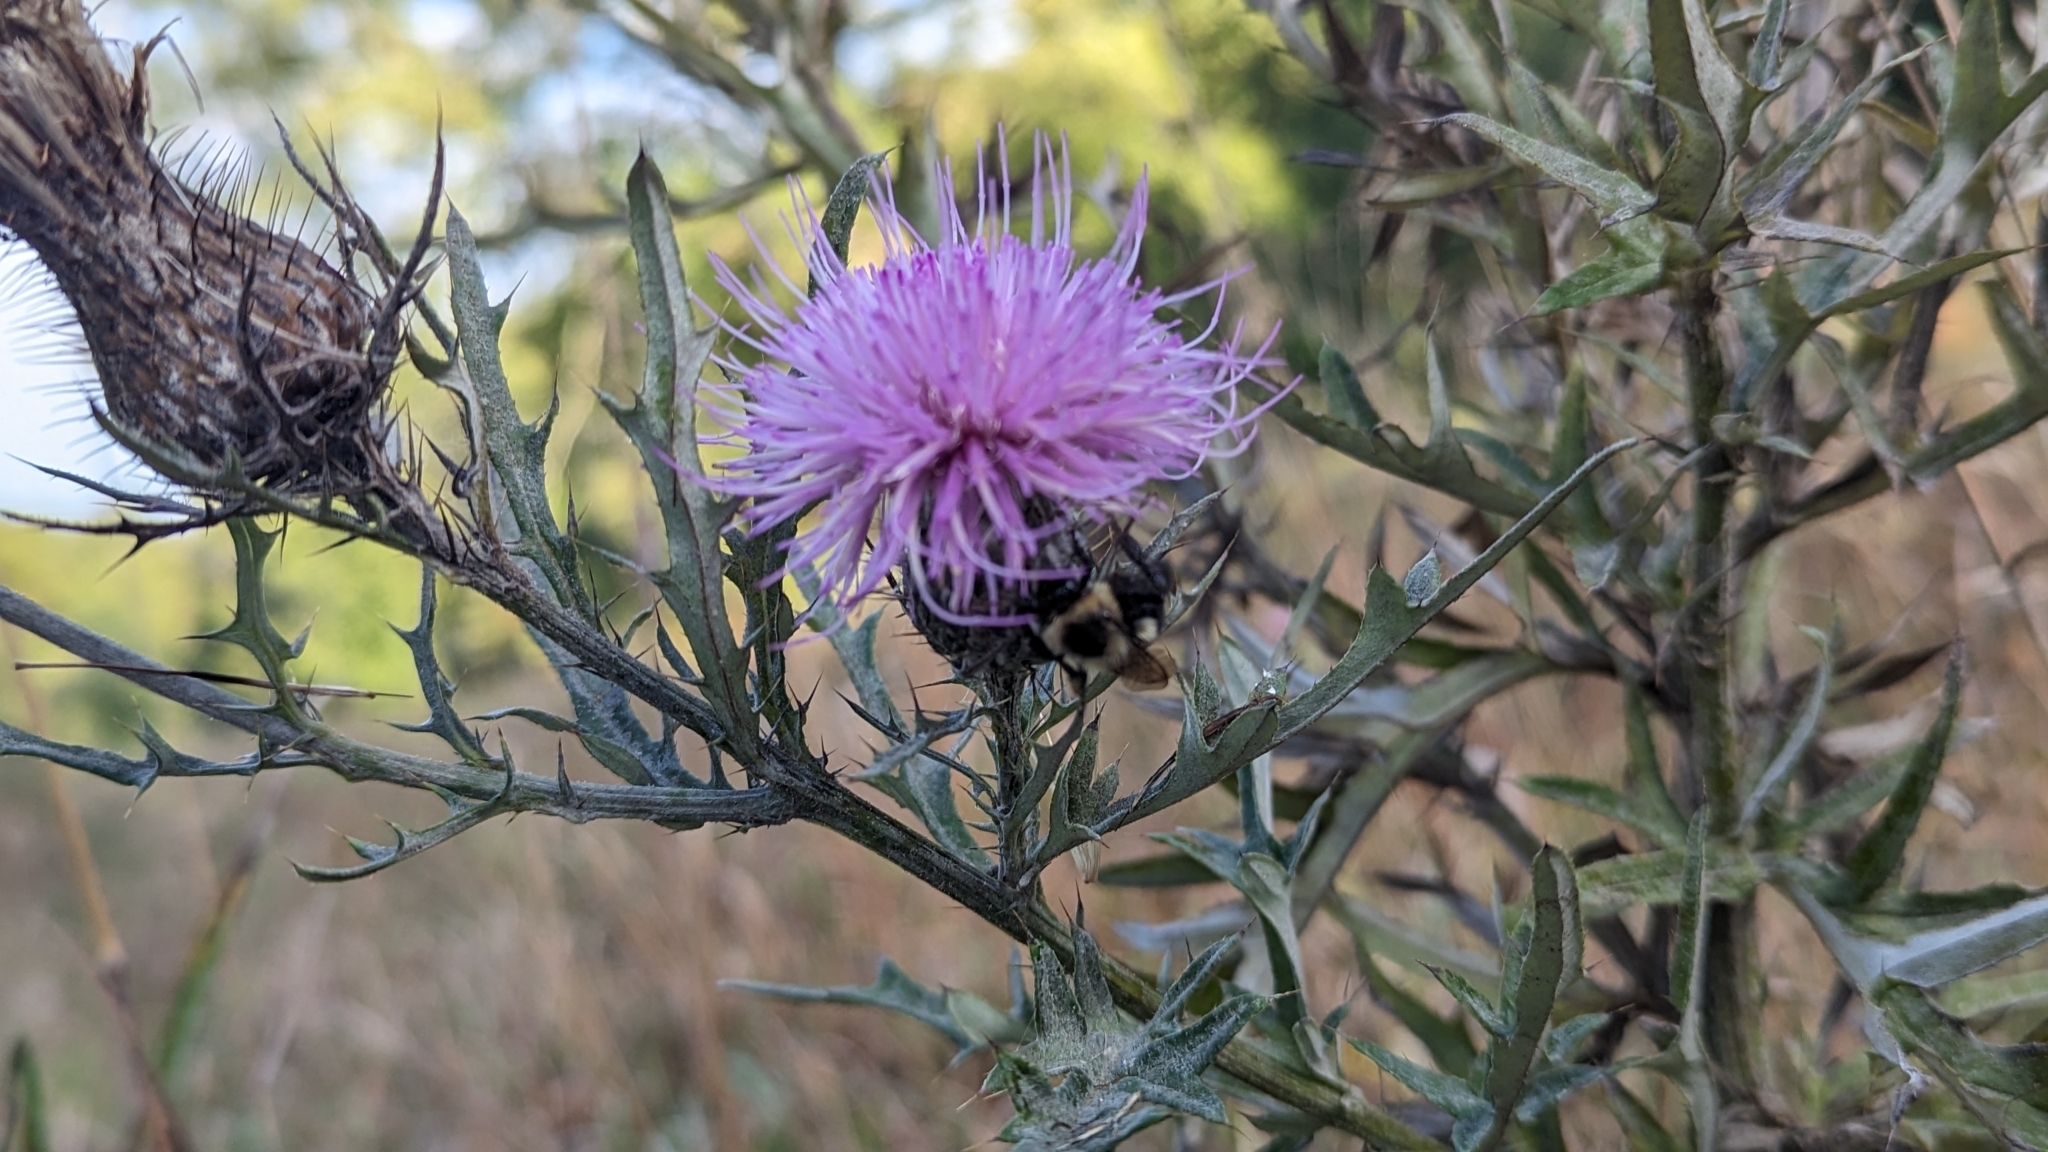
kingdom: Plantae
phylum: Tracheophyta
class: Magnoliopsida
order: Asterales
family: Asteraceae
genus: Cirsium
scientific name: Cirsium discolor
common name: Field thistle
